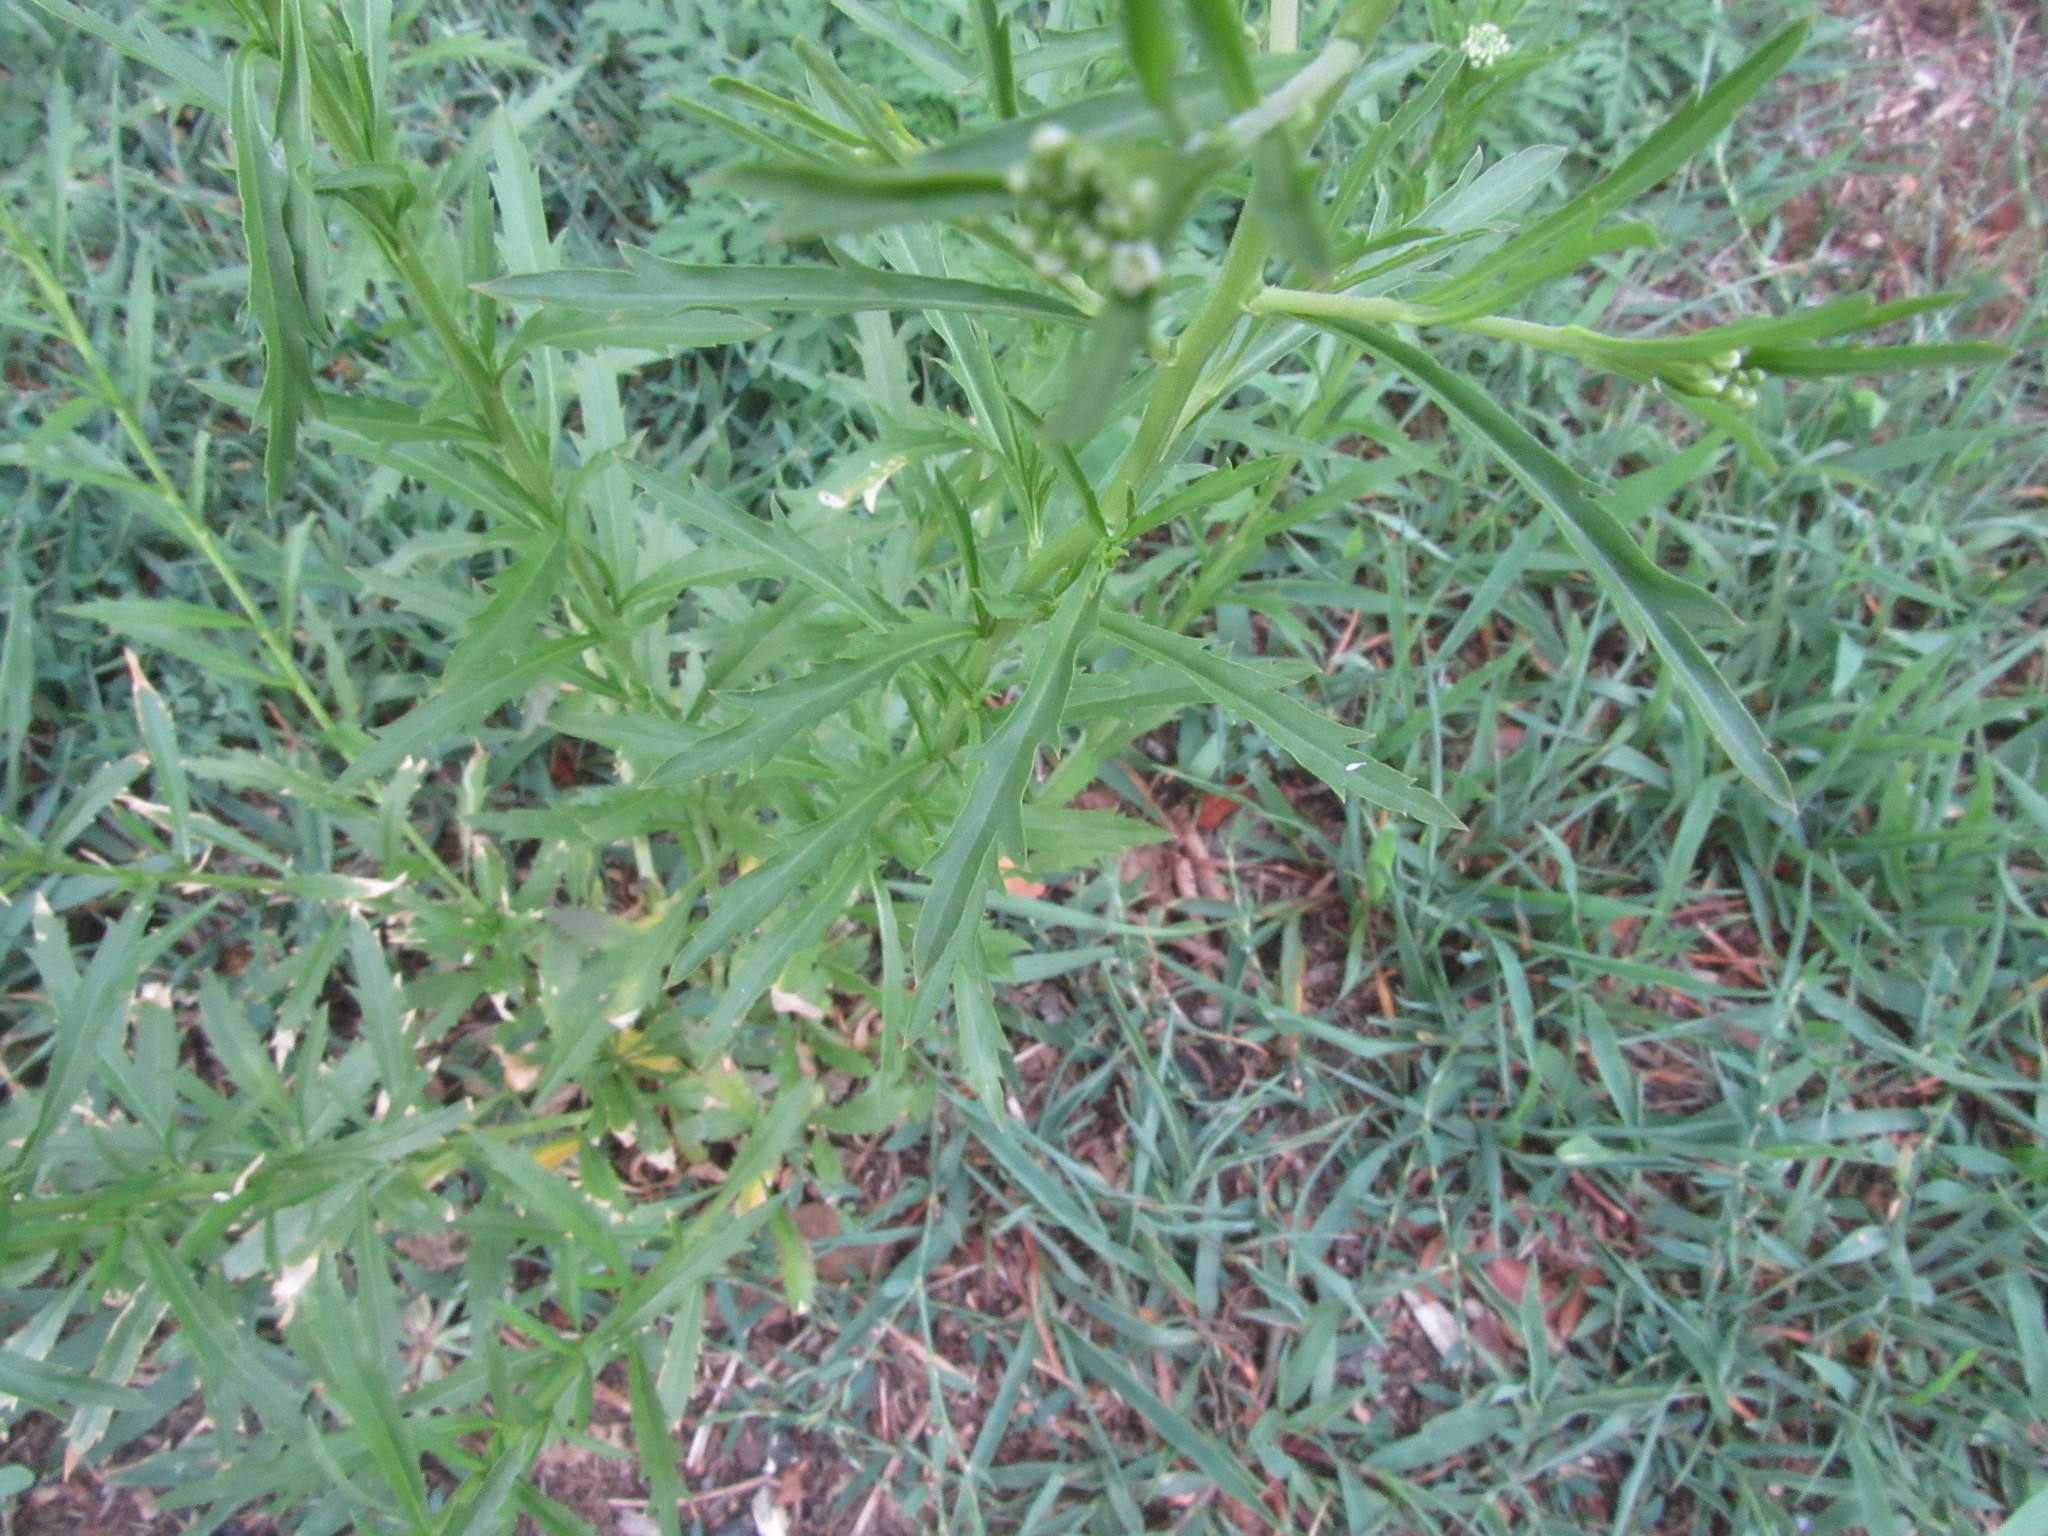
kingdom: Plantae
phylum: Tracheophyta
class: Magnoliopsida
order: Brassicales
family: Brassicaceae
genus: Lepidium
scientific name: Lepidium virginicum
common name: Least pepperwort
